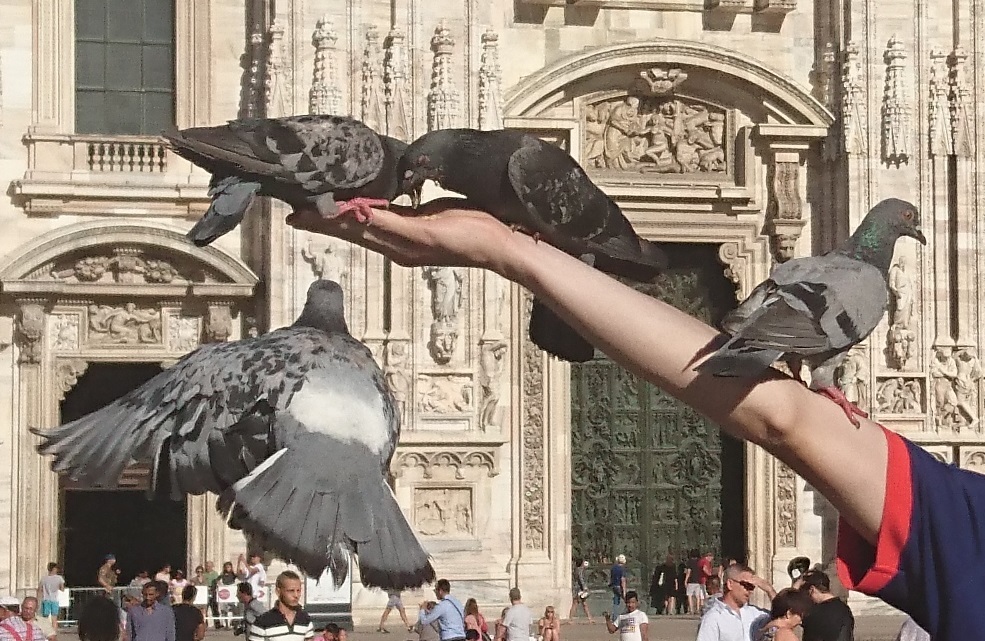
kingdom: Animalia
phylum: Chordata
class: Aves
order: Columbiformes
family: Columbidae
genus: Columba
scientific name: Columba livia
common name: Rock pigeon
